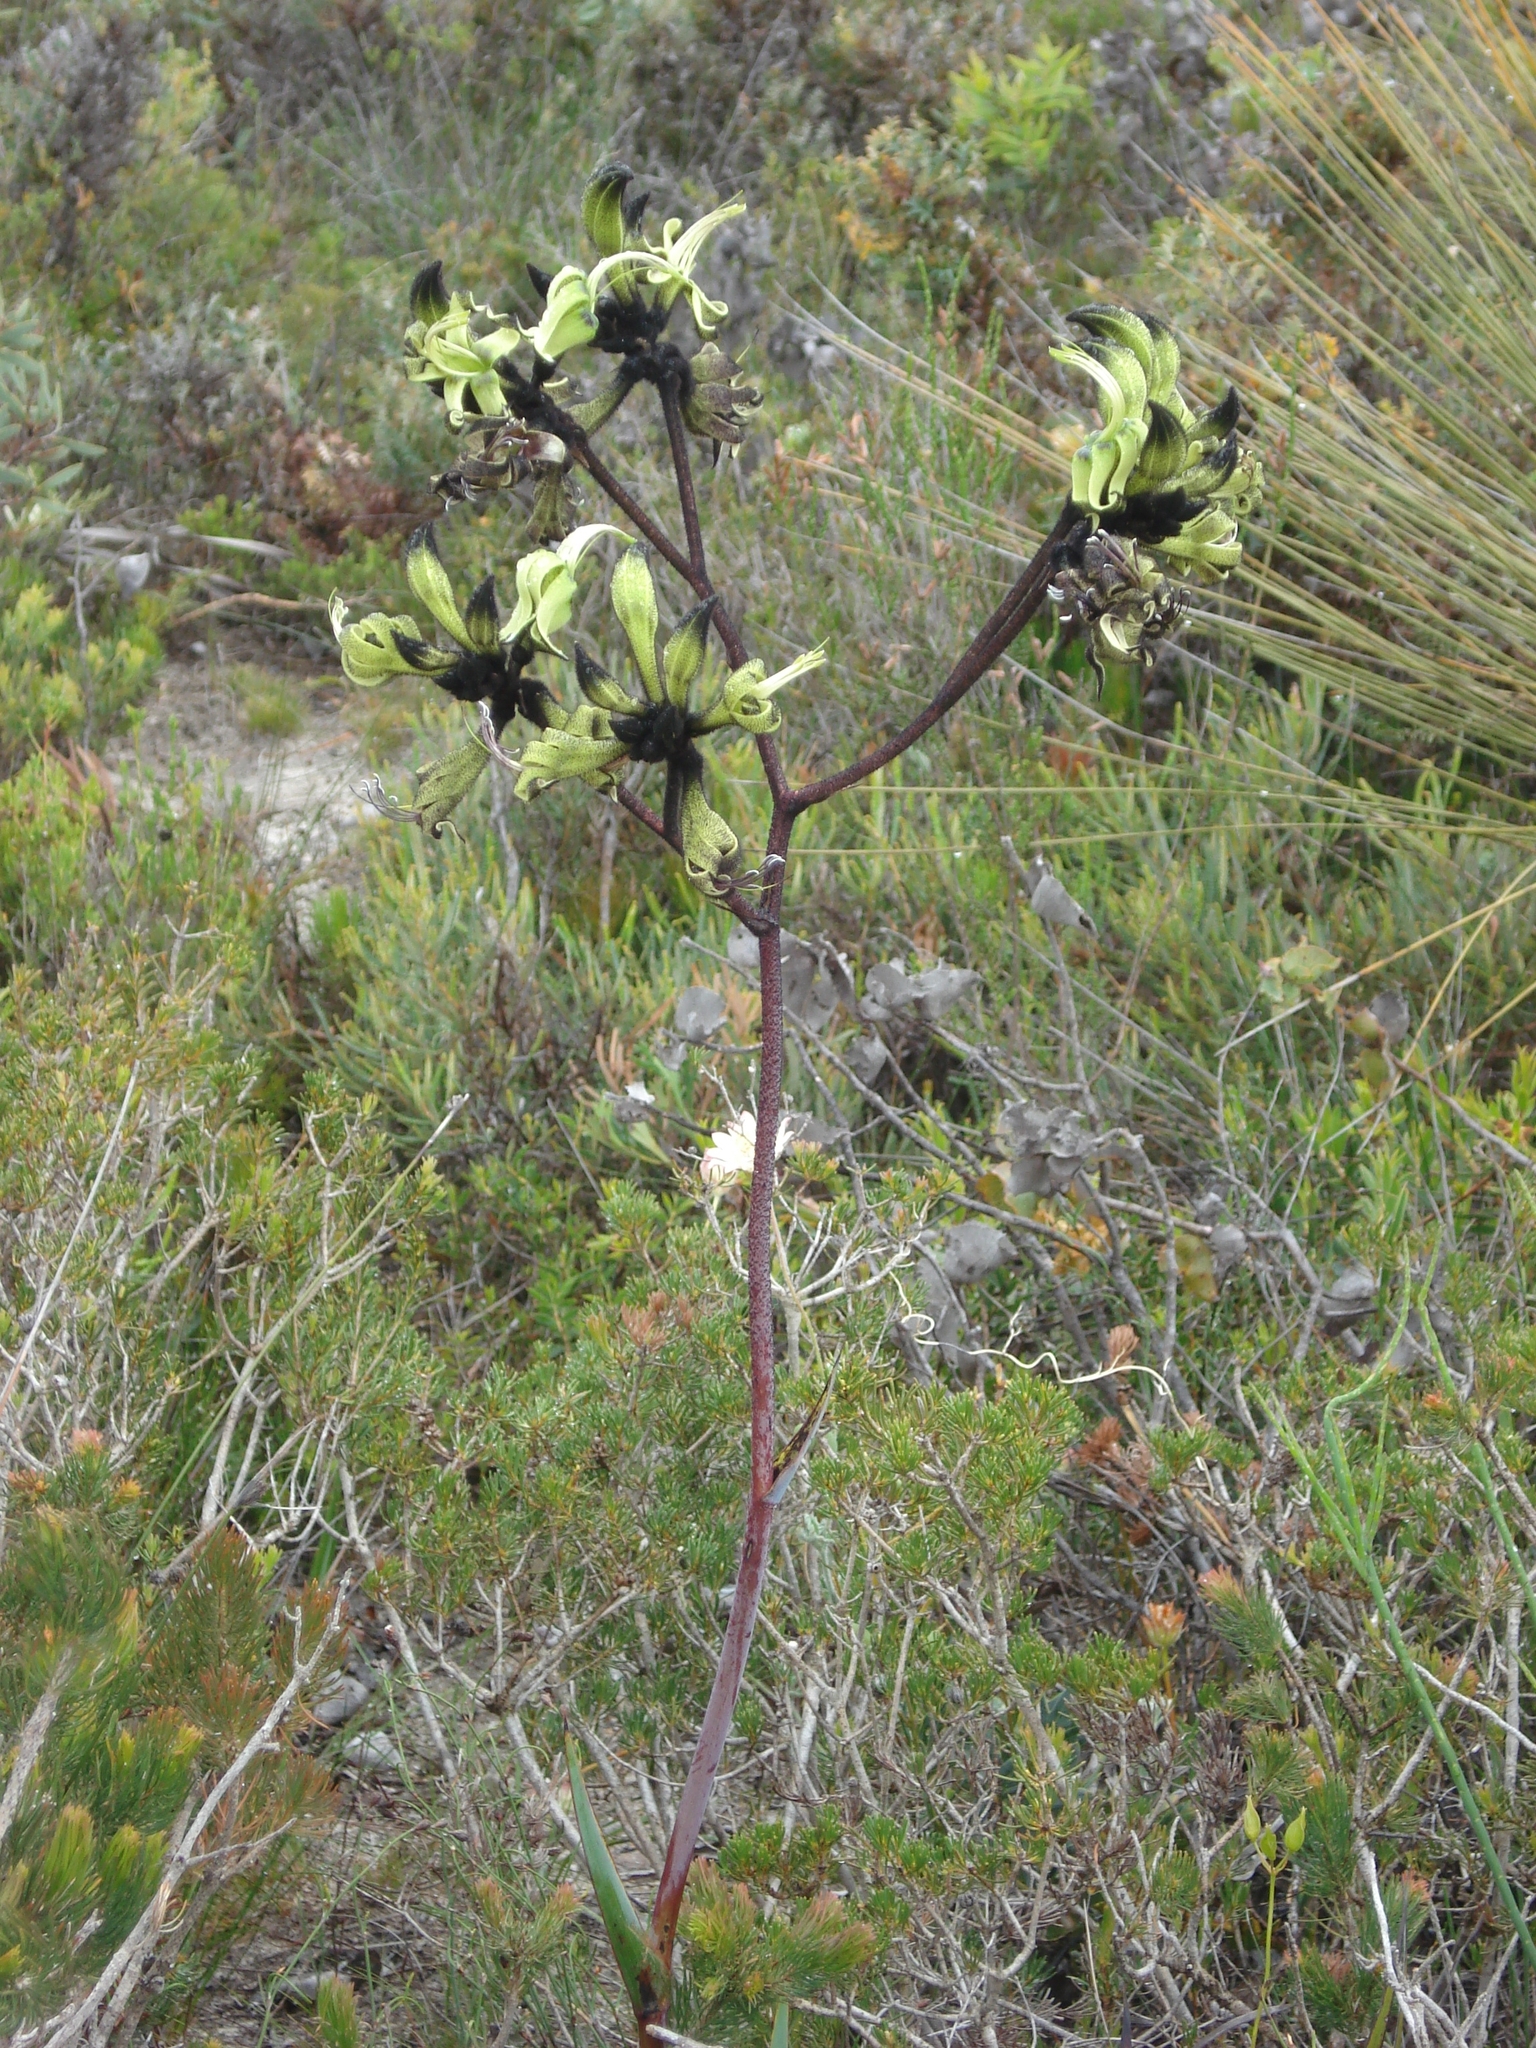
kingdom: Plantae
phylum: Tracheophyta
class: Liliopsida
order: Commelinales
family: Haemodoraceae
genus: Macropidia
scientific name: Macropidia fuliginosa
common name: Black kangaroo-paw
